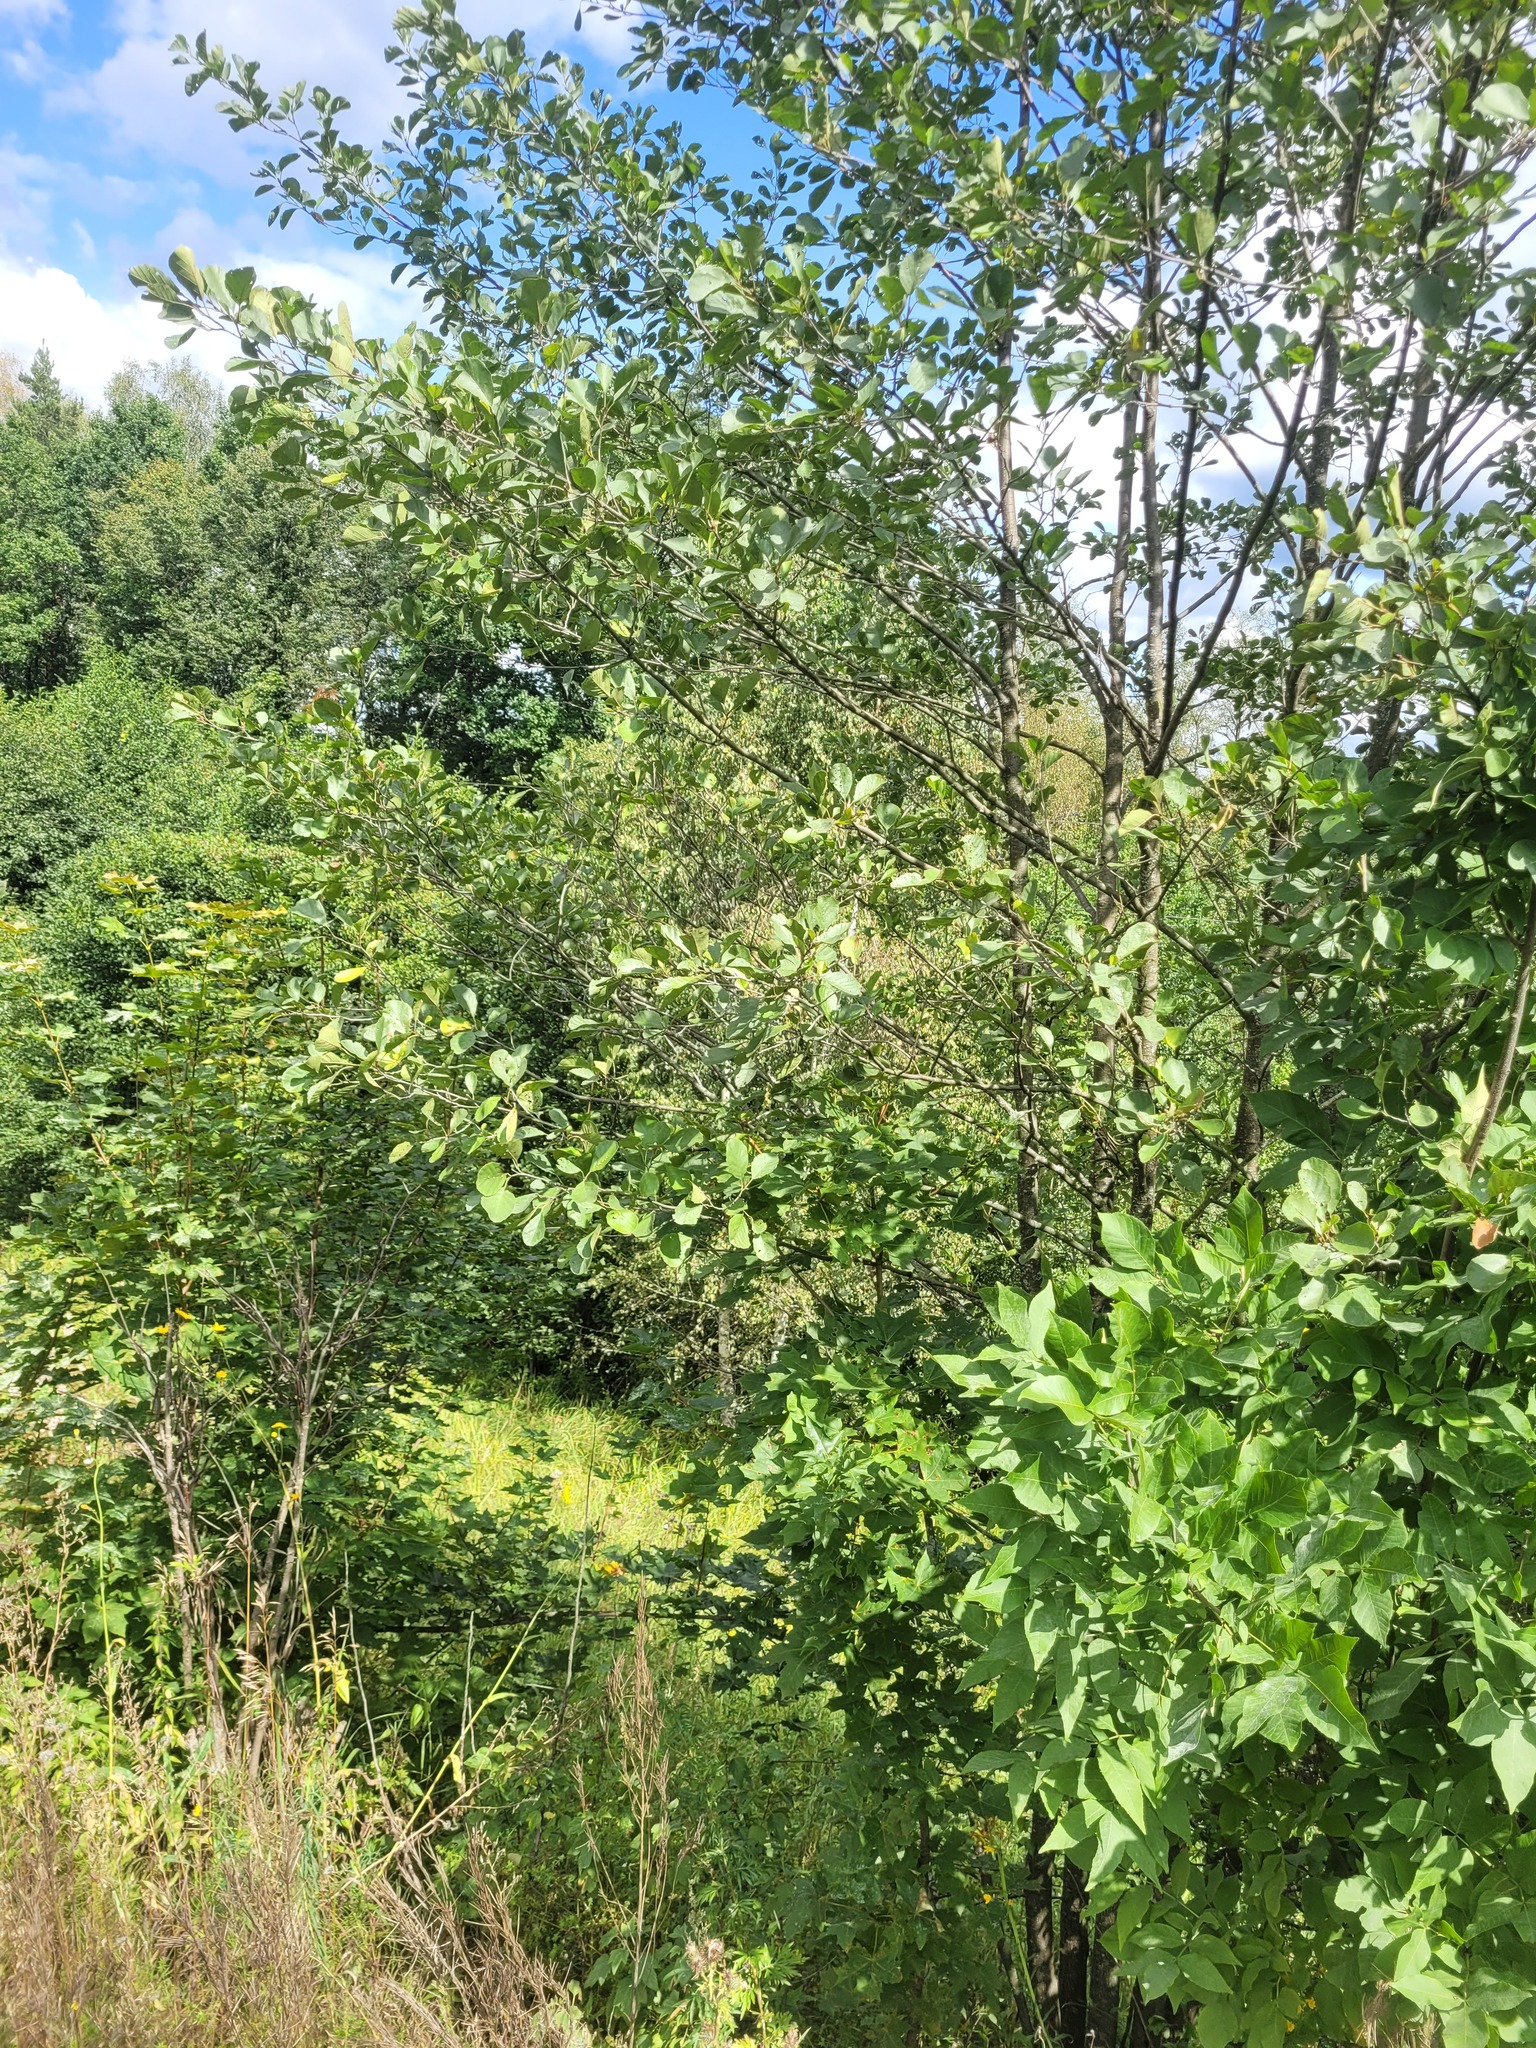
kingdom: Plantae
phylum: Tracheophyta
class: Magnoliopsida
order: Fagales
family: Betulaceae
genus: Alnus
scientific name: Alnus glutinosa
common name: Black alder
